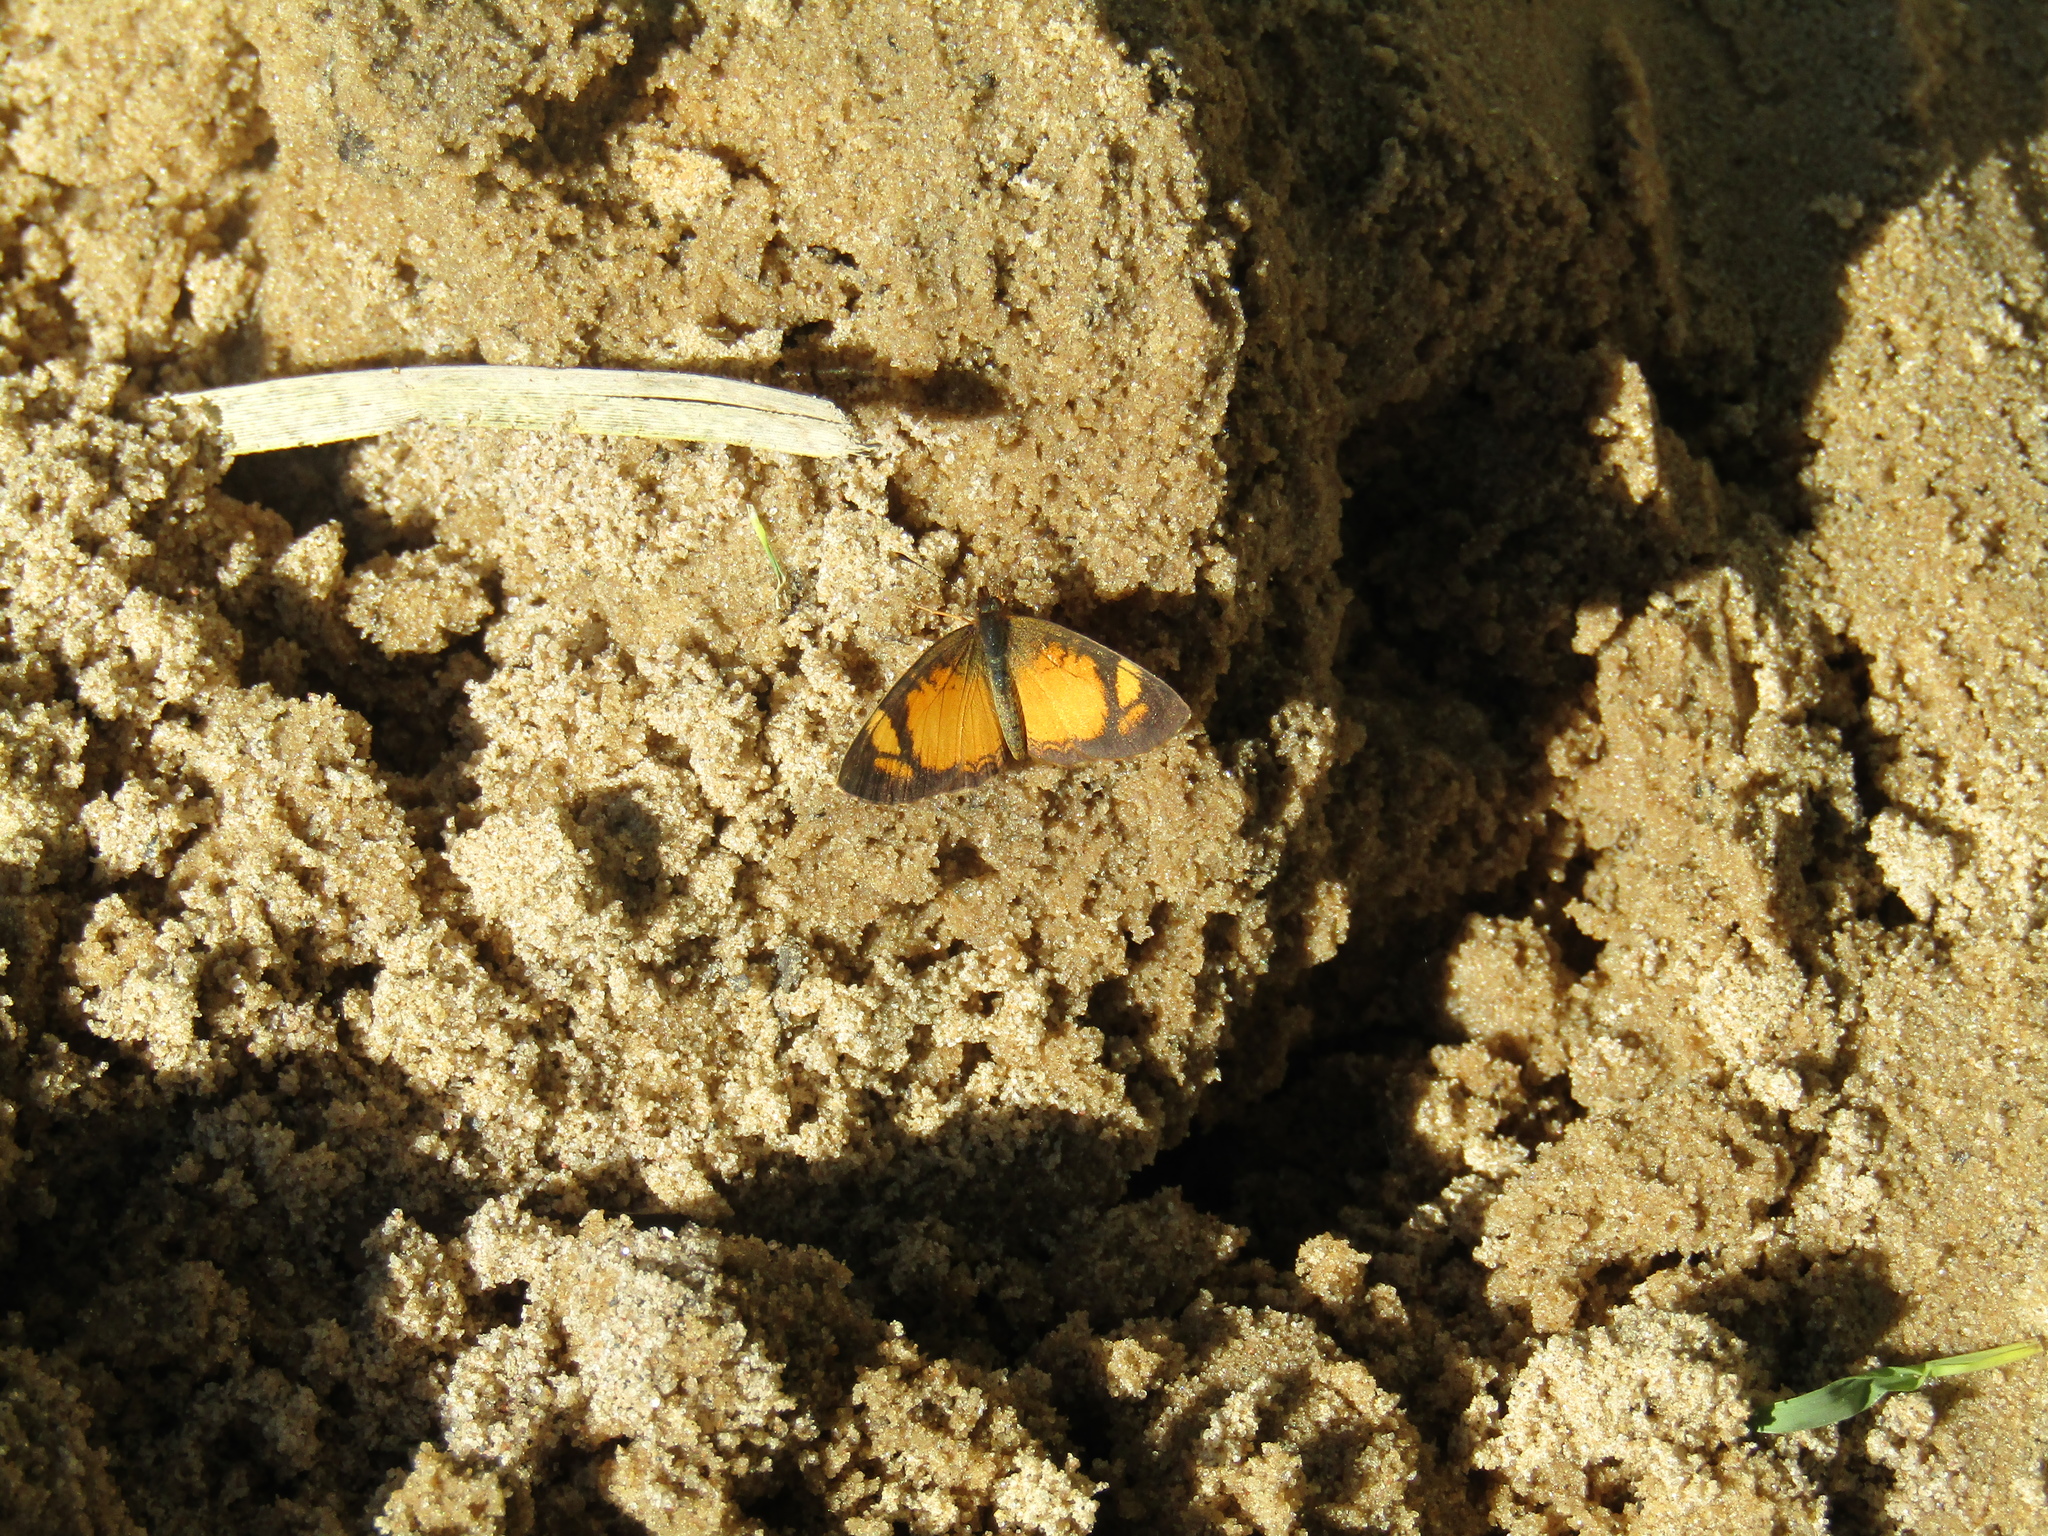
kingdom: Animalia
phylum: Arthropoda
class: Insecta
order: Lepidoptera
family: Nymphalidae
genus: Tegosa
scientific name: Tegosa claudina
